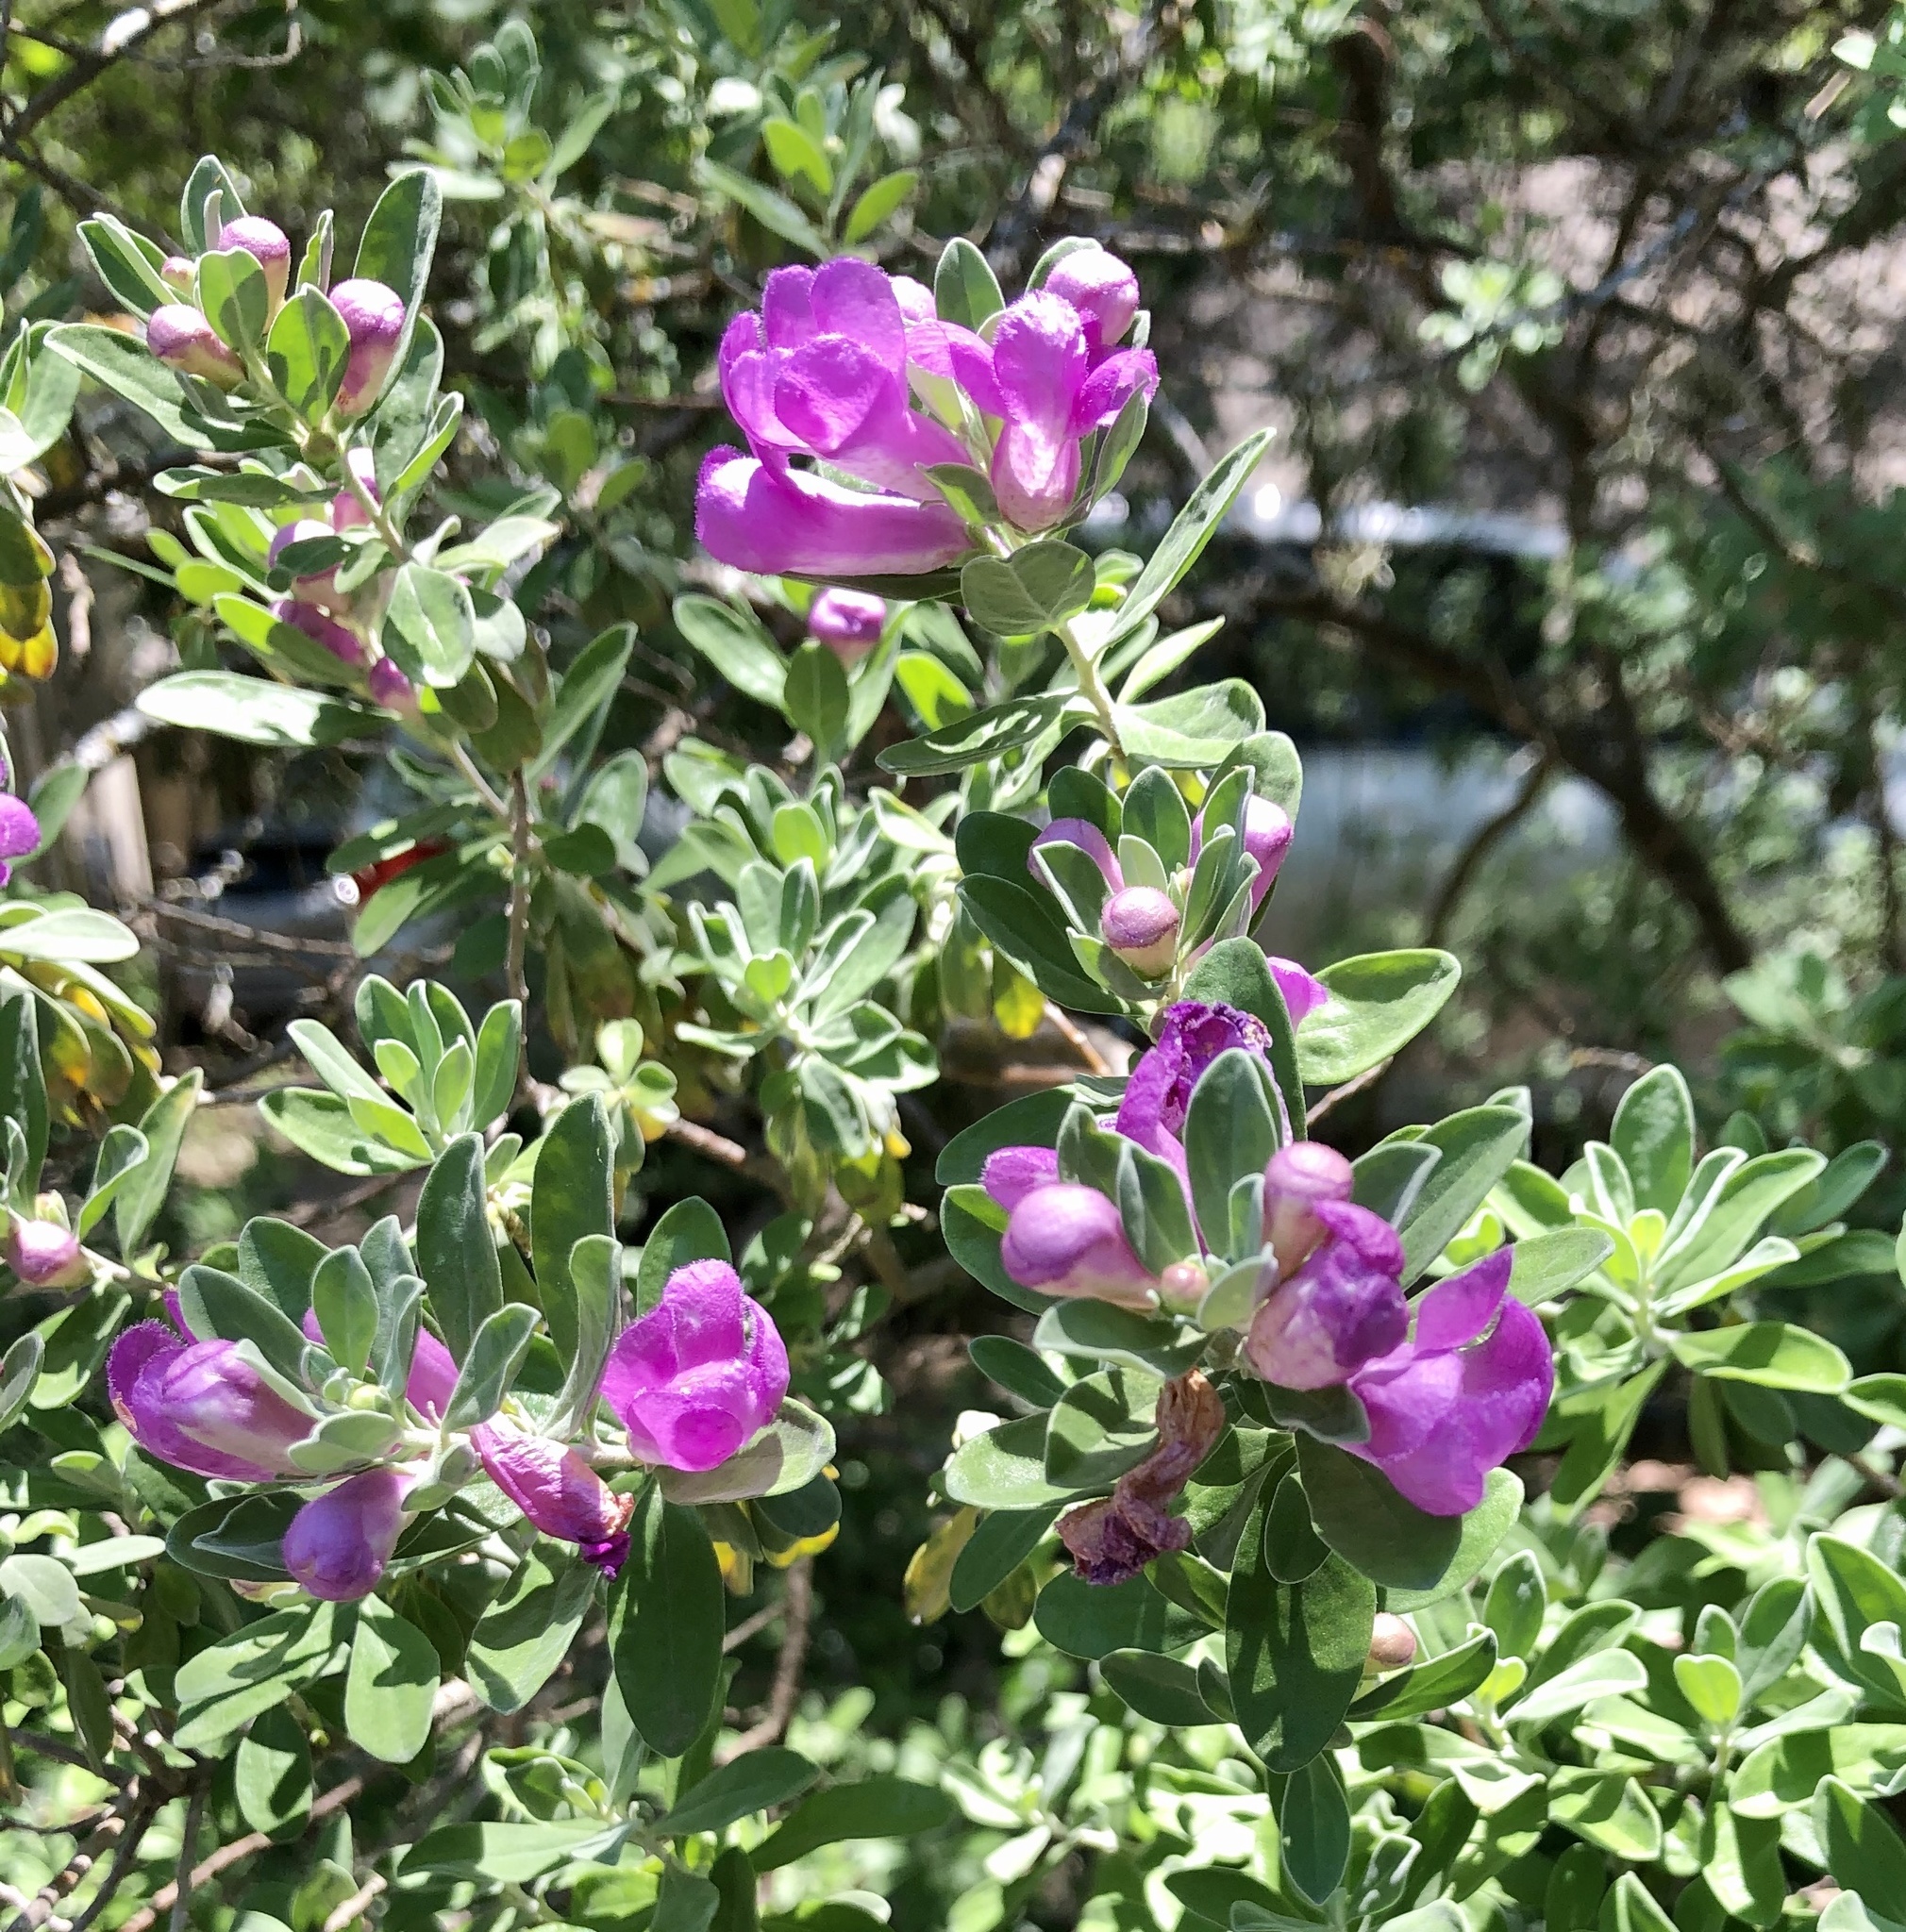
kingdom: Plantae
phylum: Tracheophyta
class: Magnoliopsida
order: Lamiales
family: Scrophulariaceae
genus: Leucophyllum
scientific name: Leucophyllum frutescens
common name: Texas silverleaf
